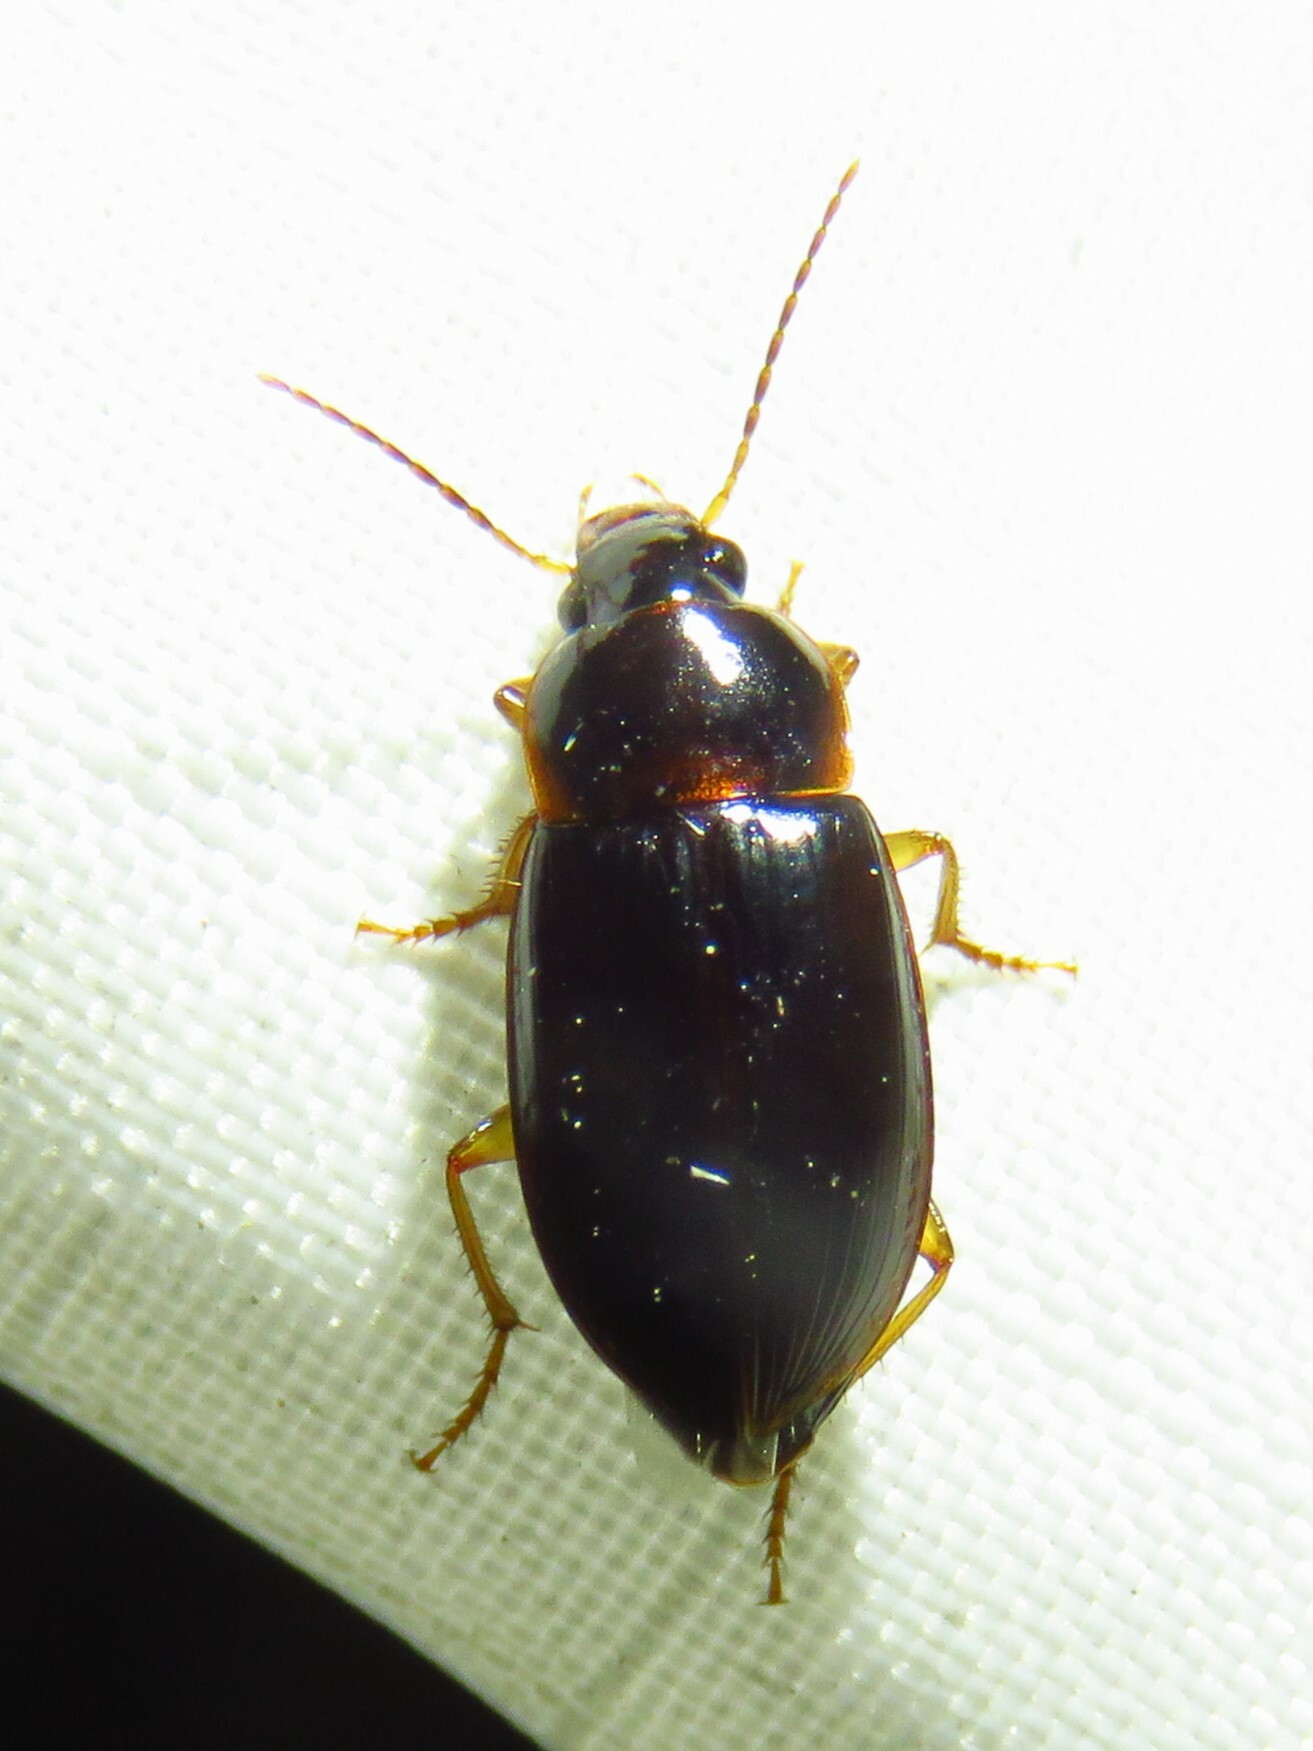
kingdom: Animalia
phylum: Arthropoda
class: Insecta
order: Coleoptera
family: Carabidae
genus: Notiobia
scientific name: Notiobia terminata
